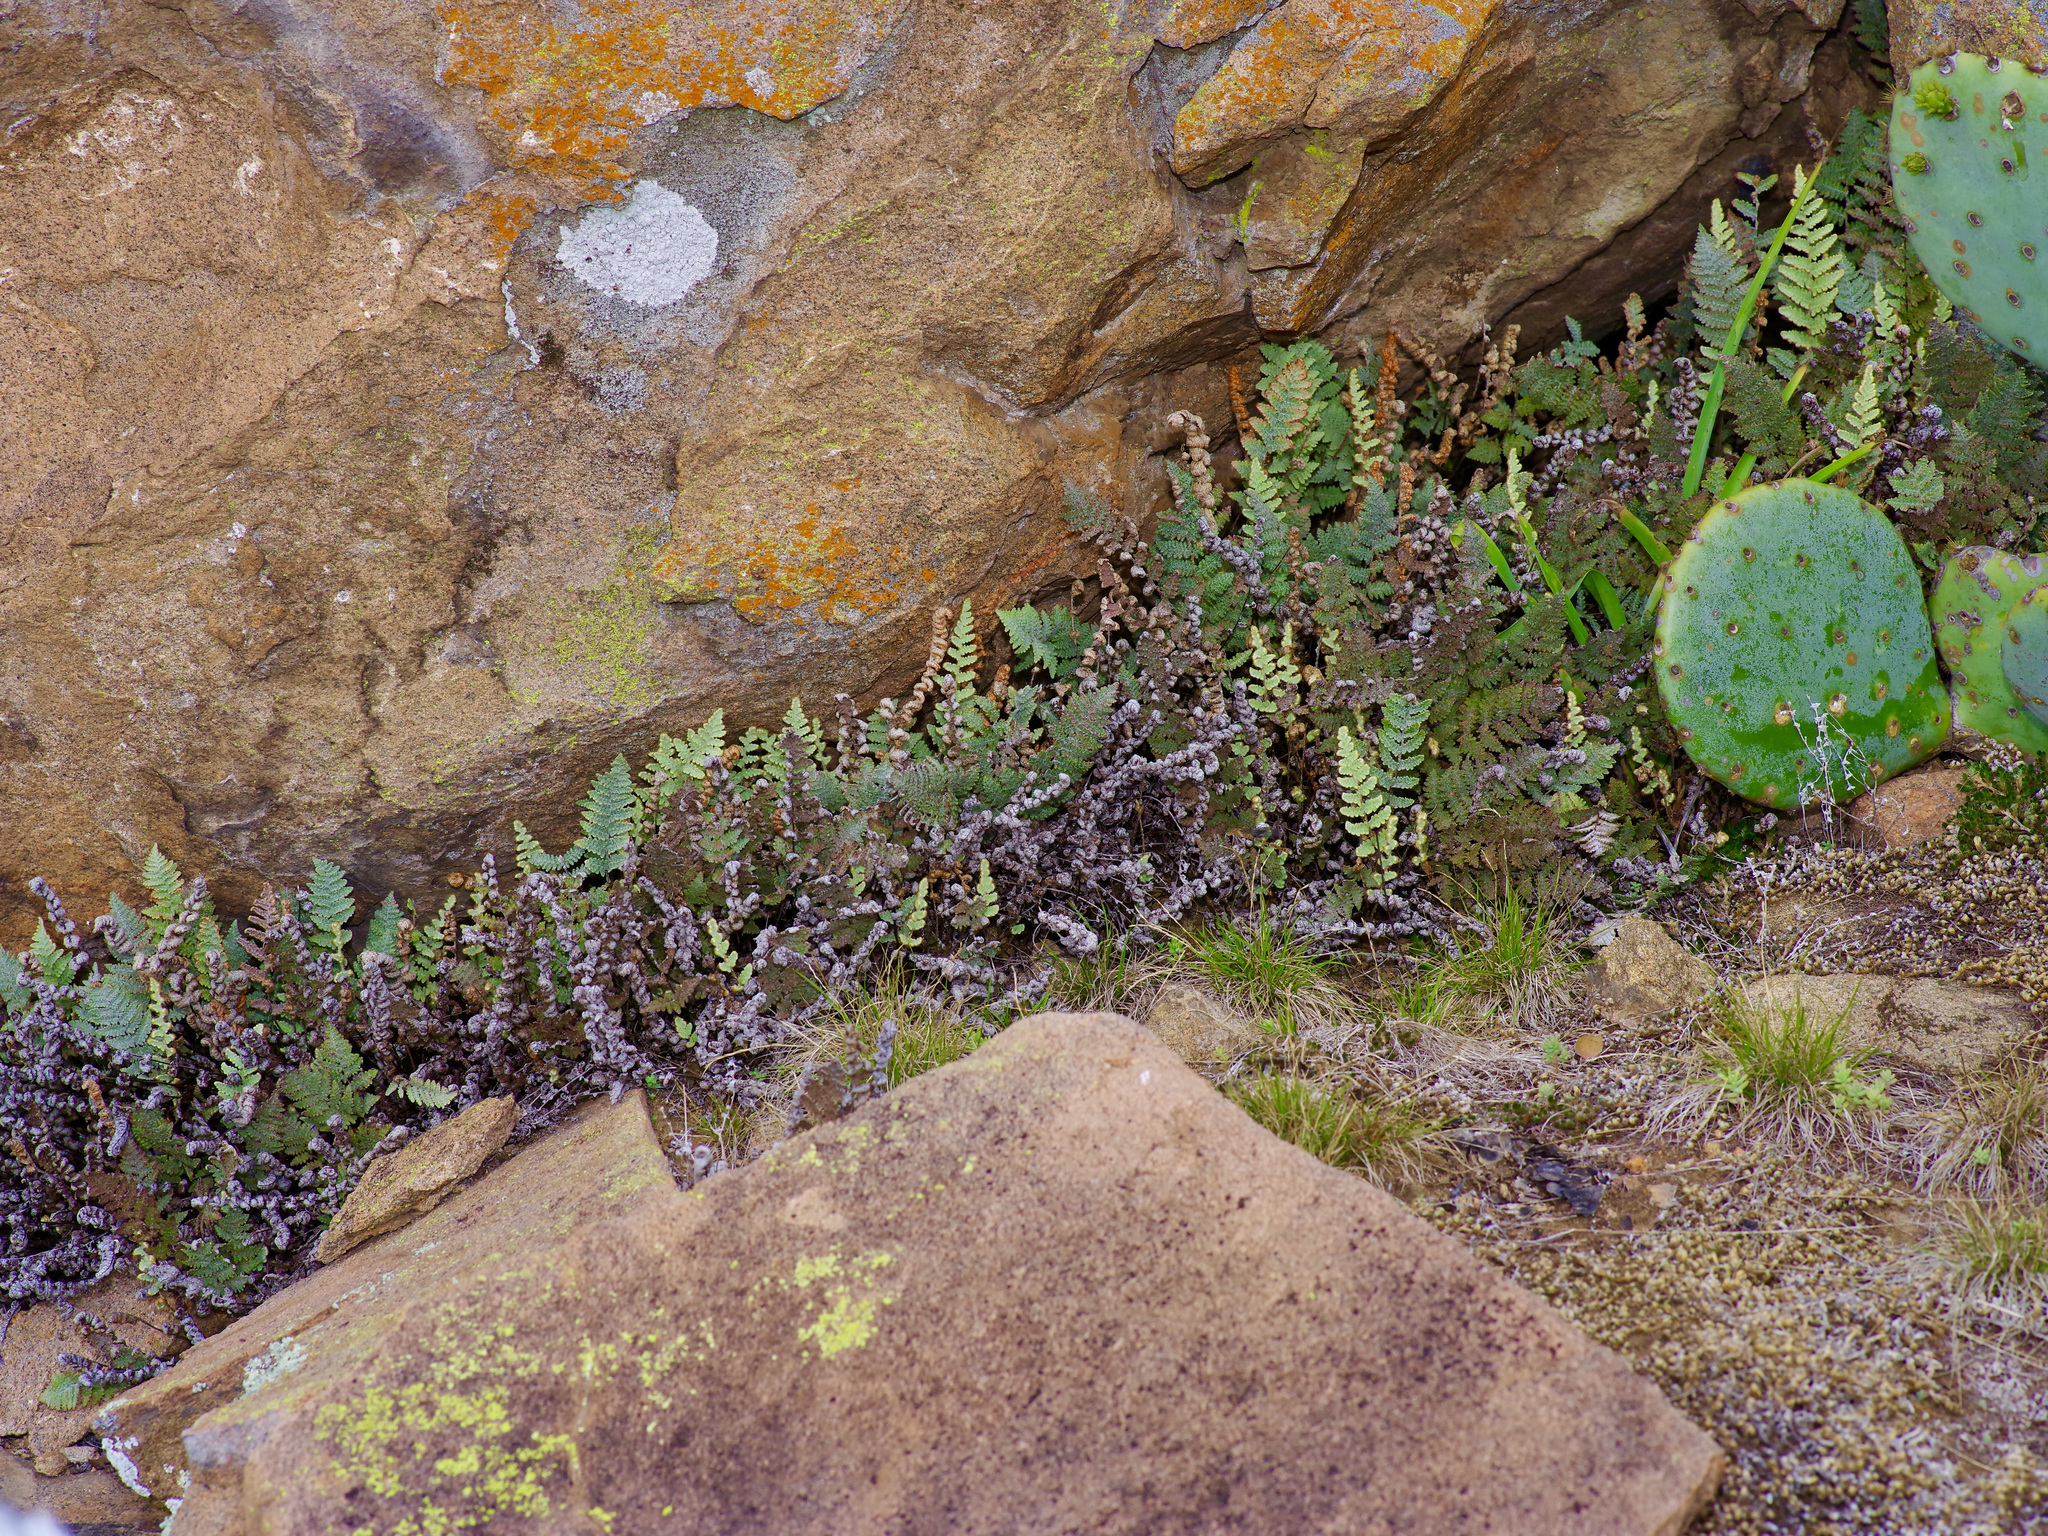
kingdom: Plantae
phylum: Tracheophyta
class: Polypodiopsida
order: Polypodiales
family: Pteridaceae
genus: Myriopteris
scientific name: Myriopteris lindheimeri
